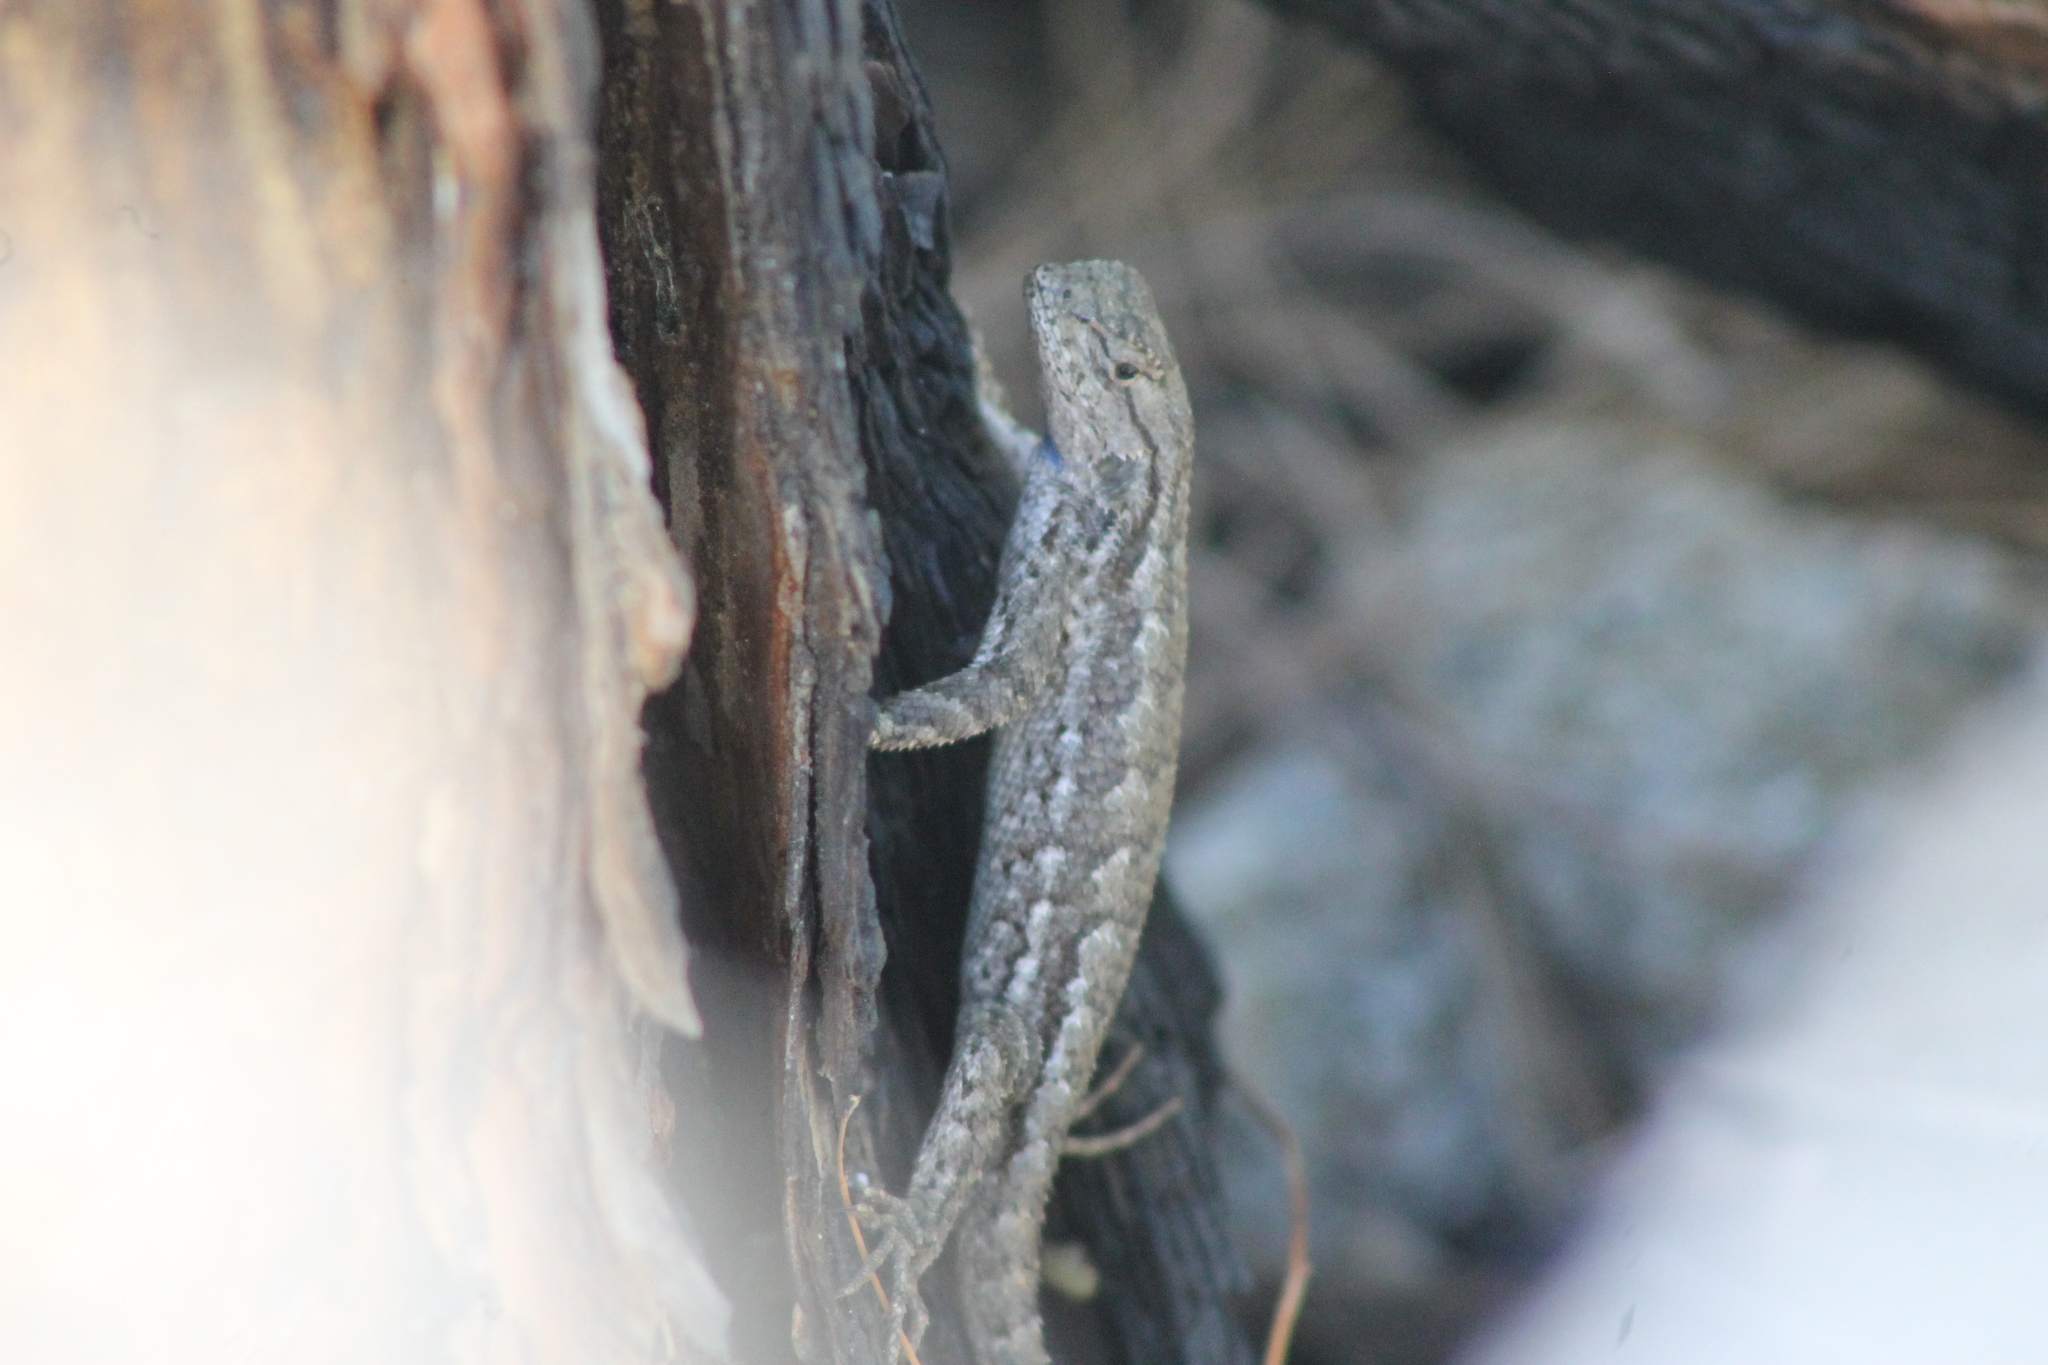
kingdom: Animalia
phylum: Chordata
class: Squamata
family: Phrynosomatidae
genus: Sceloporus
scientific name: Sceloporus occidentalis
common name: Western fence lizard
